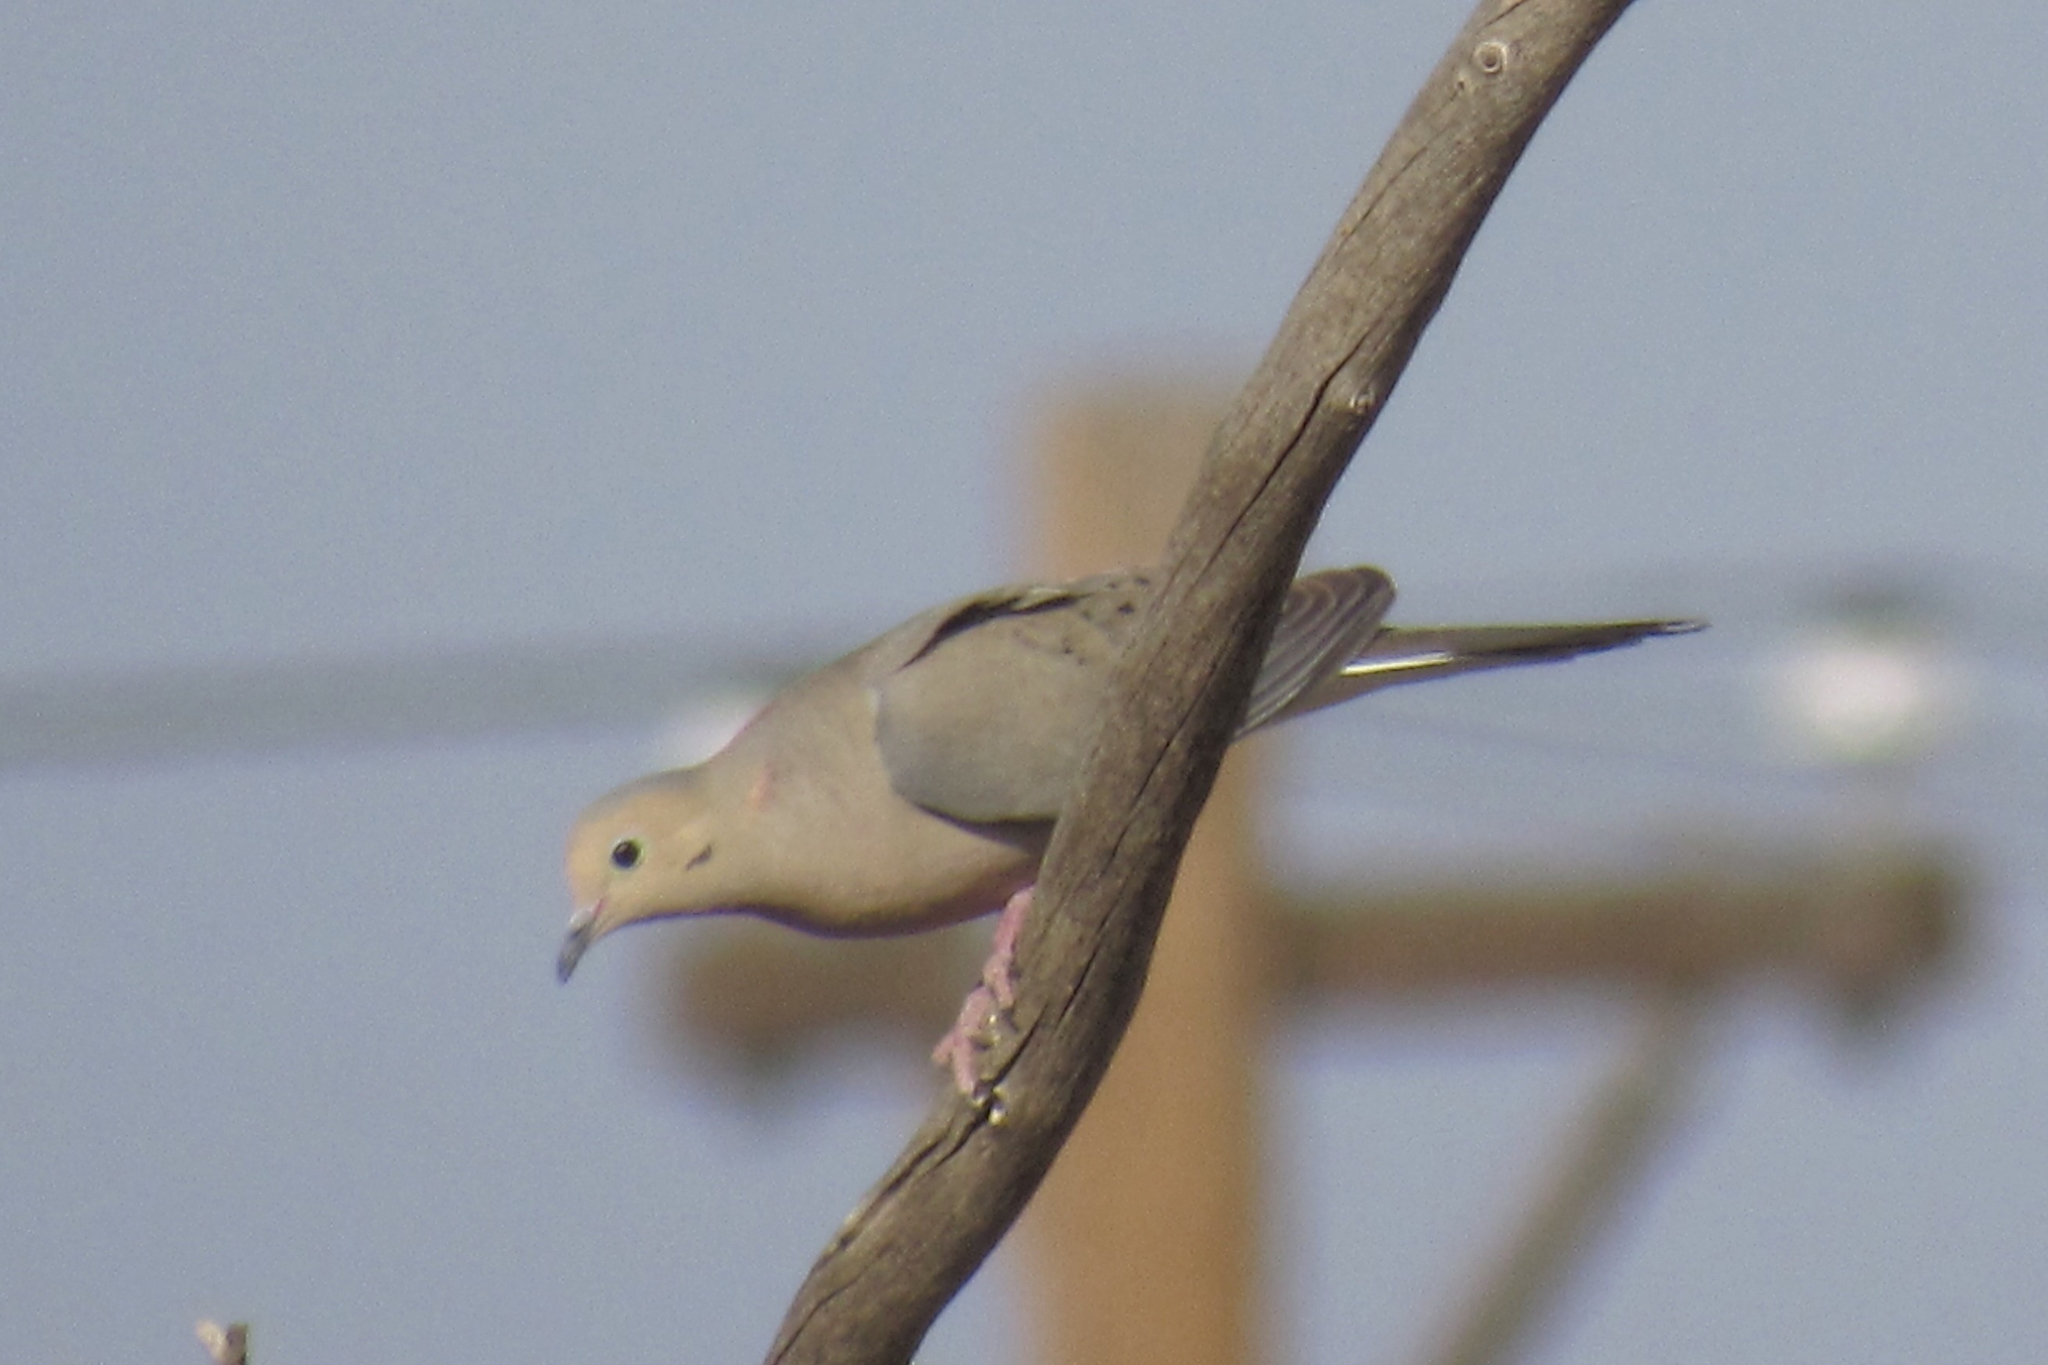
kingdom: Animalia
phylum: Chordata
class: Aves
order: Columbiformes
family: Columbidae
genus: Zenaida
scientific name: Zenaida macroura
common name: Mourning dove
